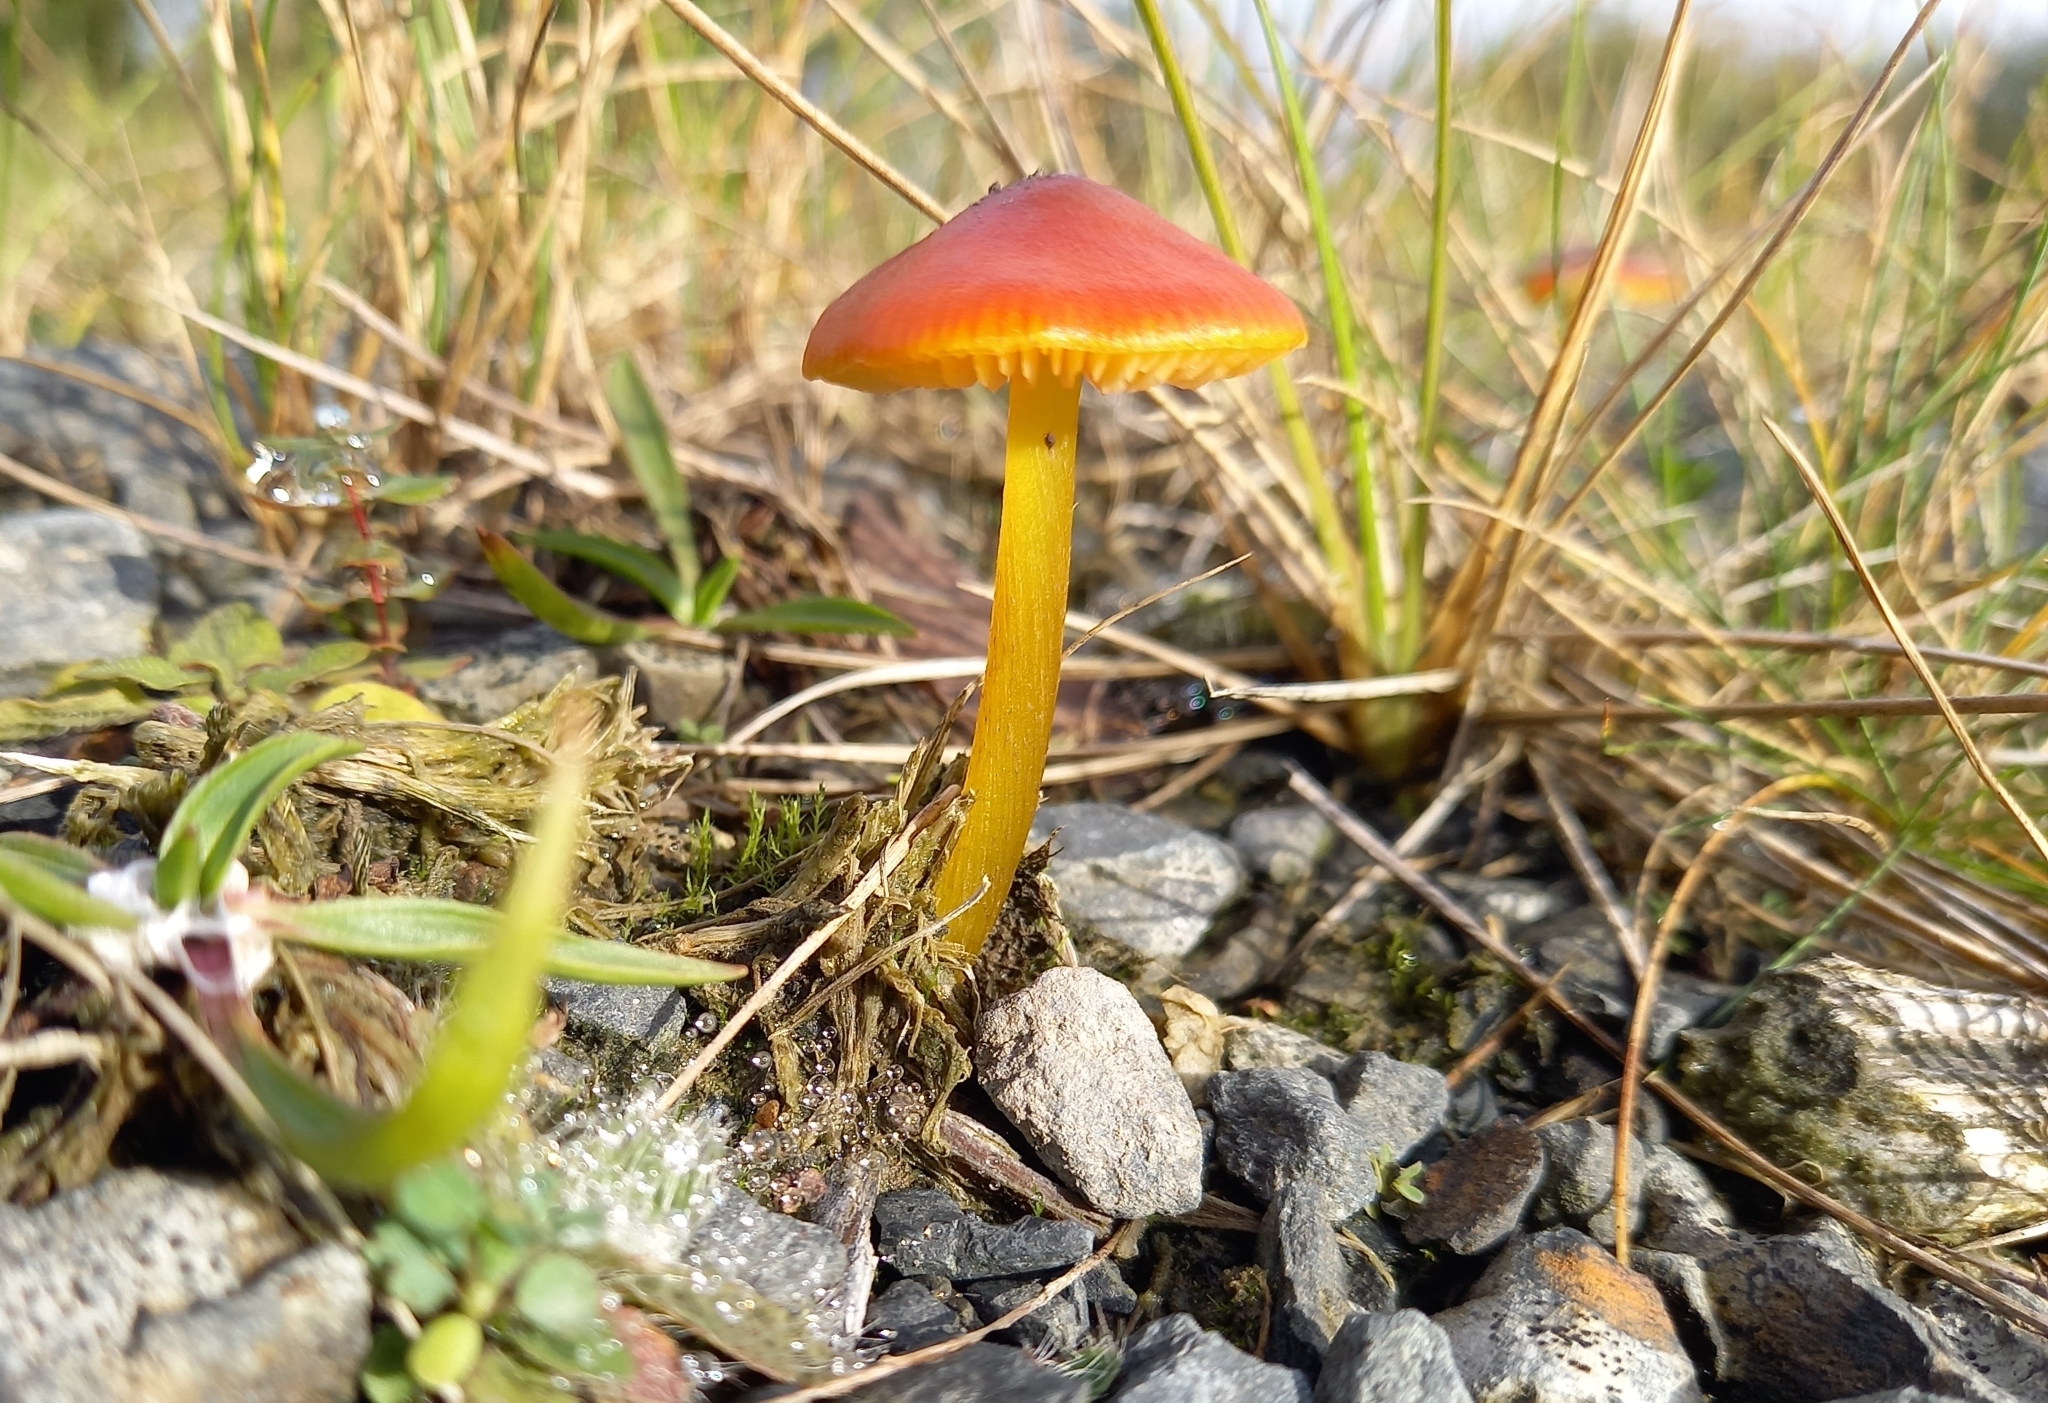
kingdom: Fungi
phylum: Basidiomycota
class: Agaricomycetes
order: Agaricales
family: Hygrophoraceae
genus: Hygrocybe
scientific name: Hygrocybe conica
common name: Blackening wax-cap
